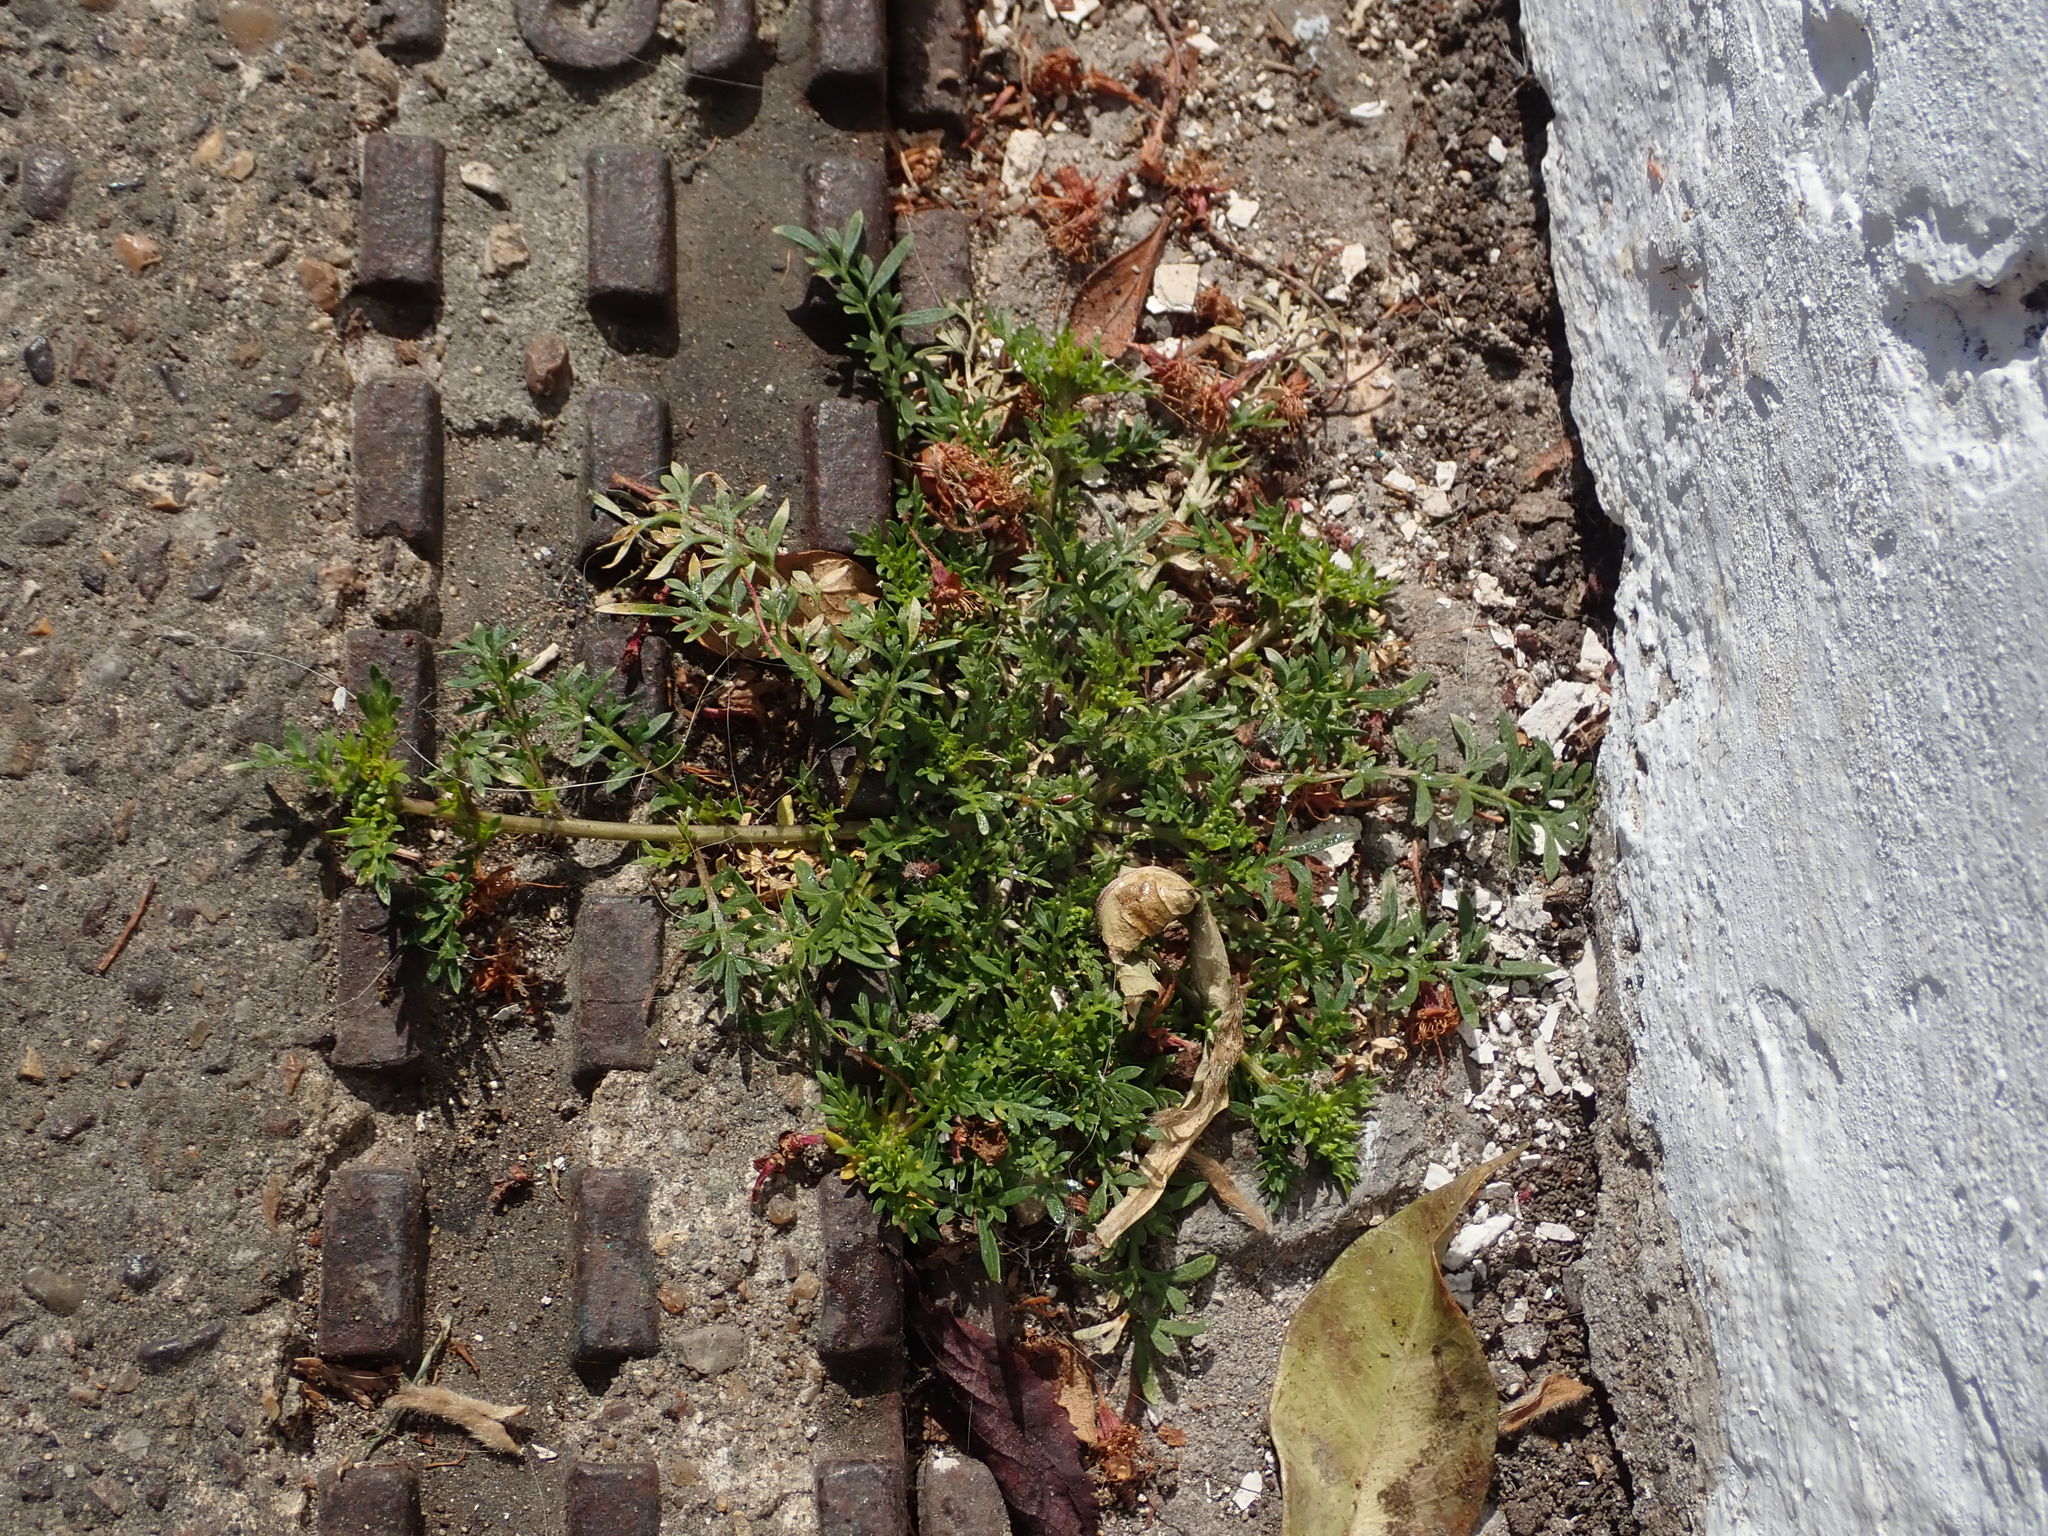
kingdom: Plantae
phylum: Tracheophyta
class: Magnoliopsida
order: Brassicales
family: Brassicaceae
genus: Lepidium
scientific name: Lepidium didymum
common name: Lesser swinecress
